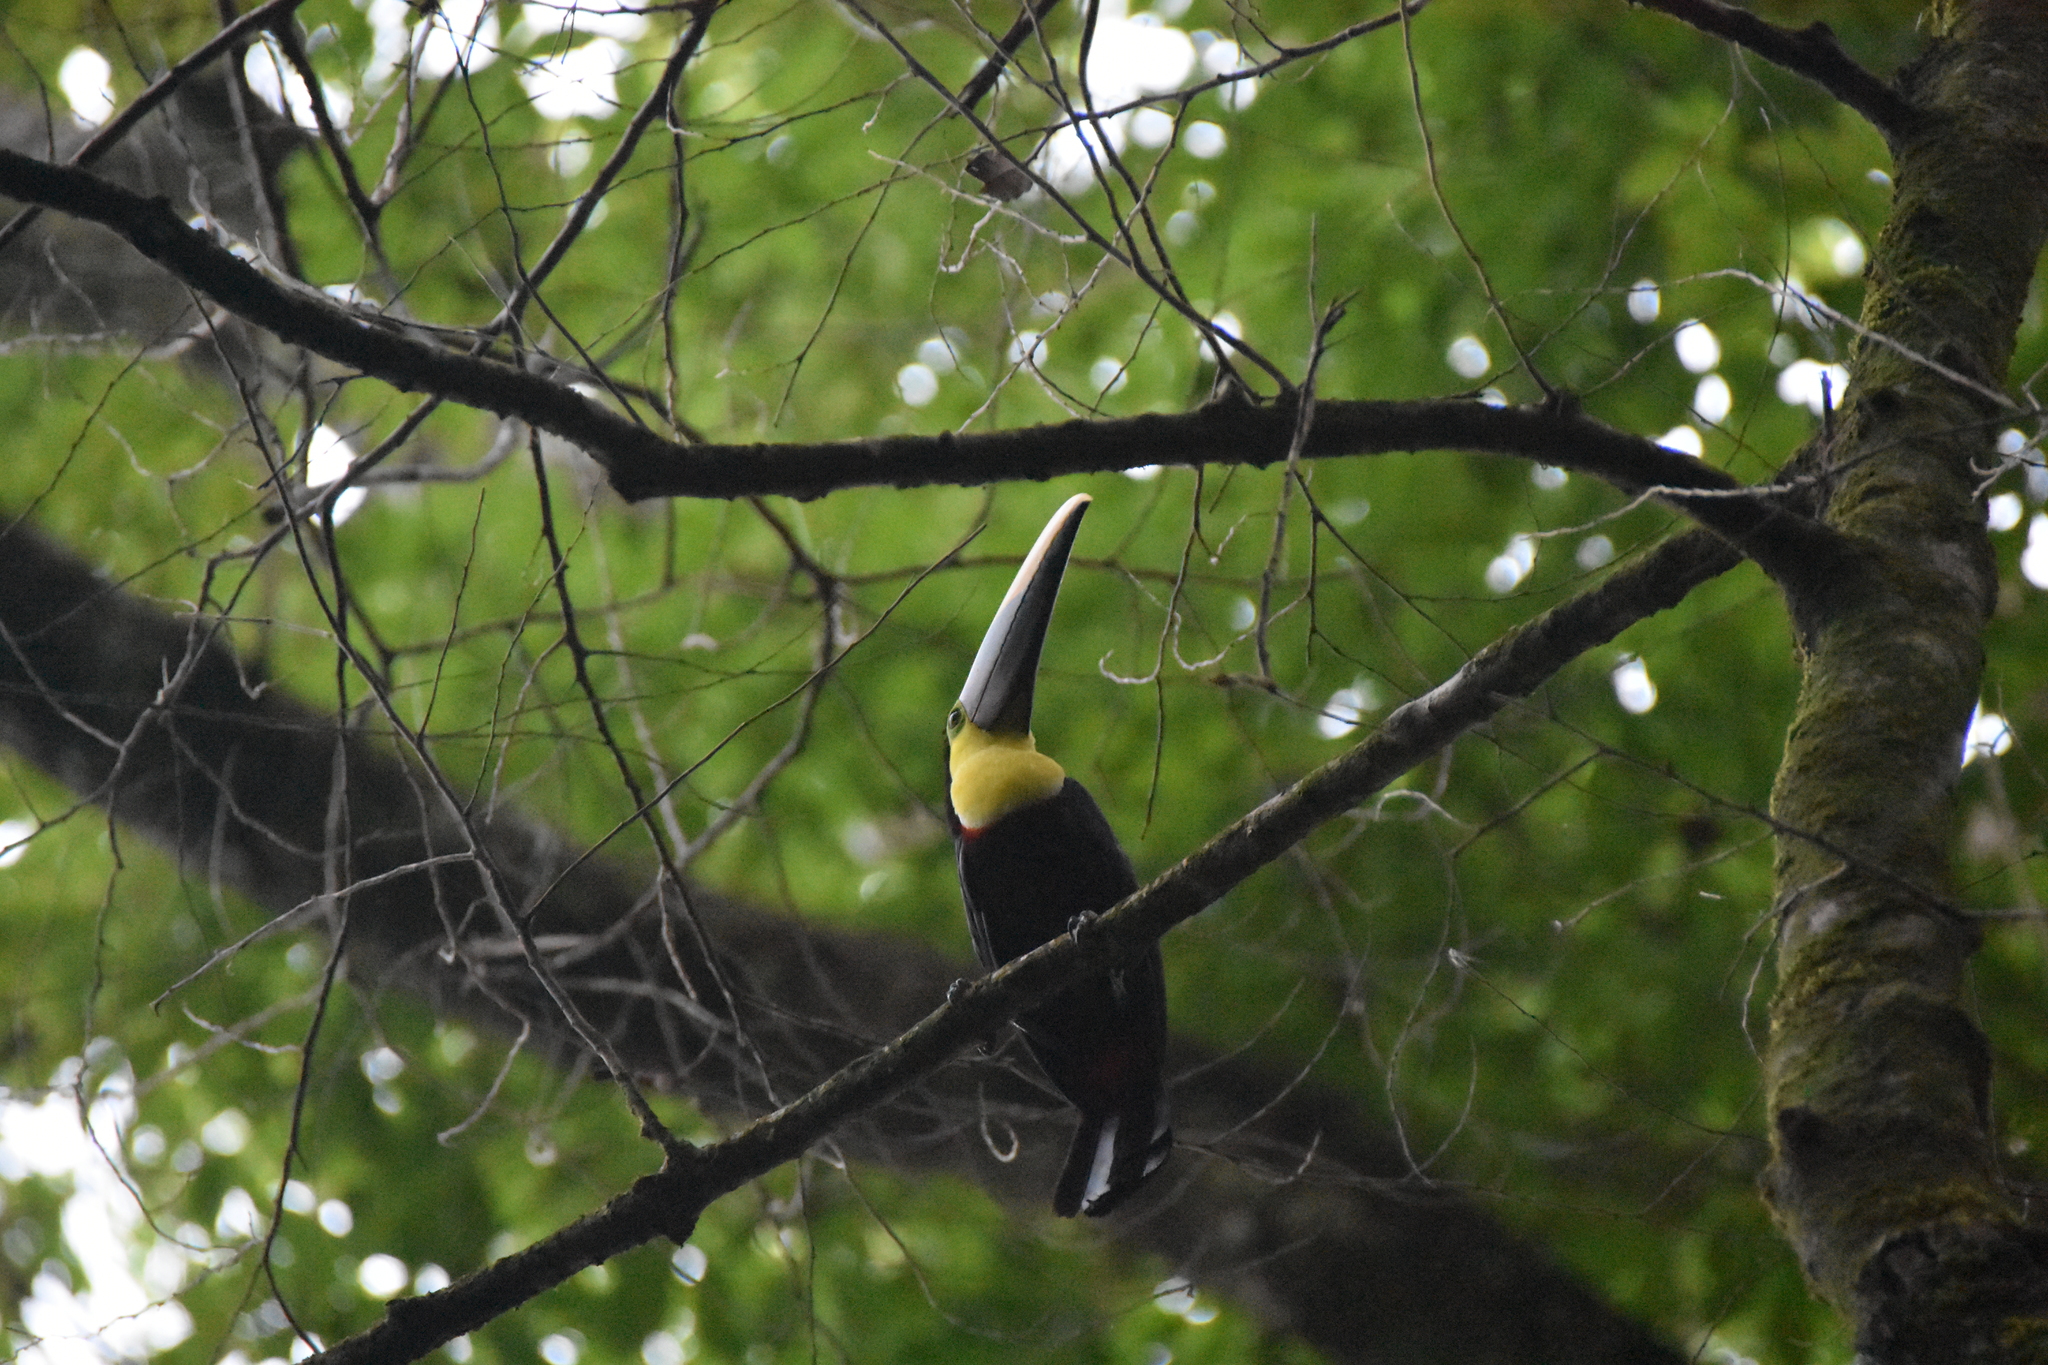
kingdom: Animalia
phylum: Chordata
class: Aves
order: Piciformes
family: Ramphastidae
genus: Ramphastos
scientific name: Ramphastos ambiguus
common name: Yellow-throated toucan
